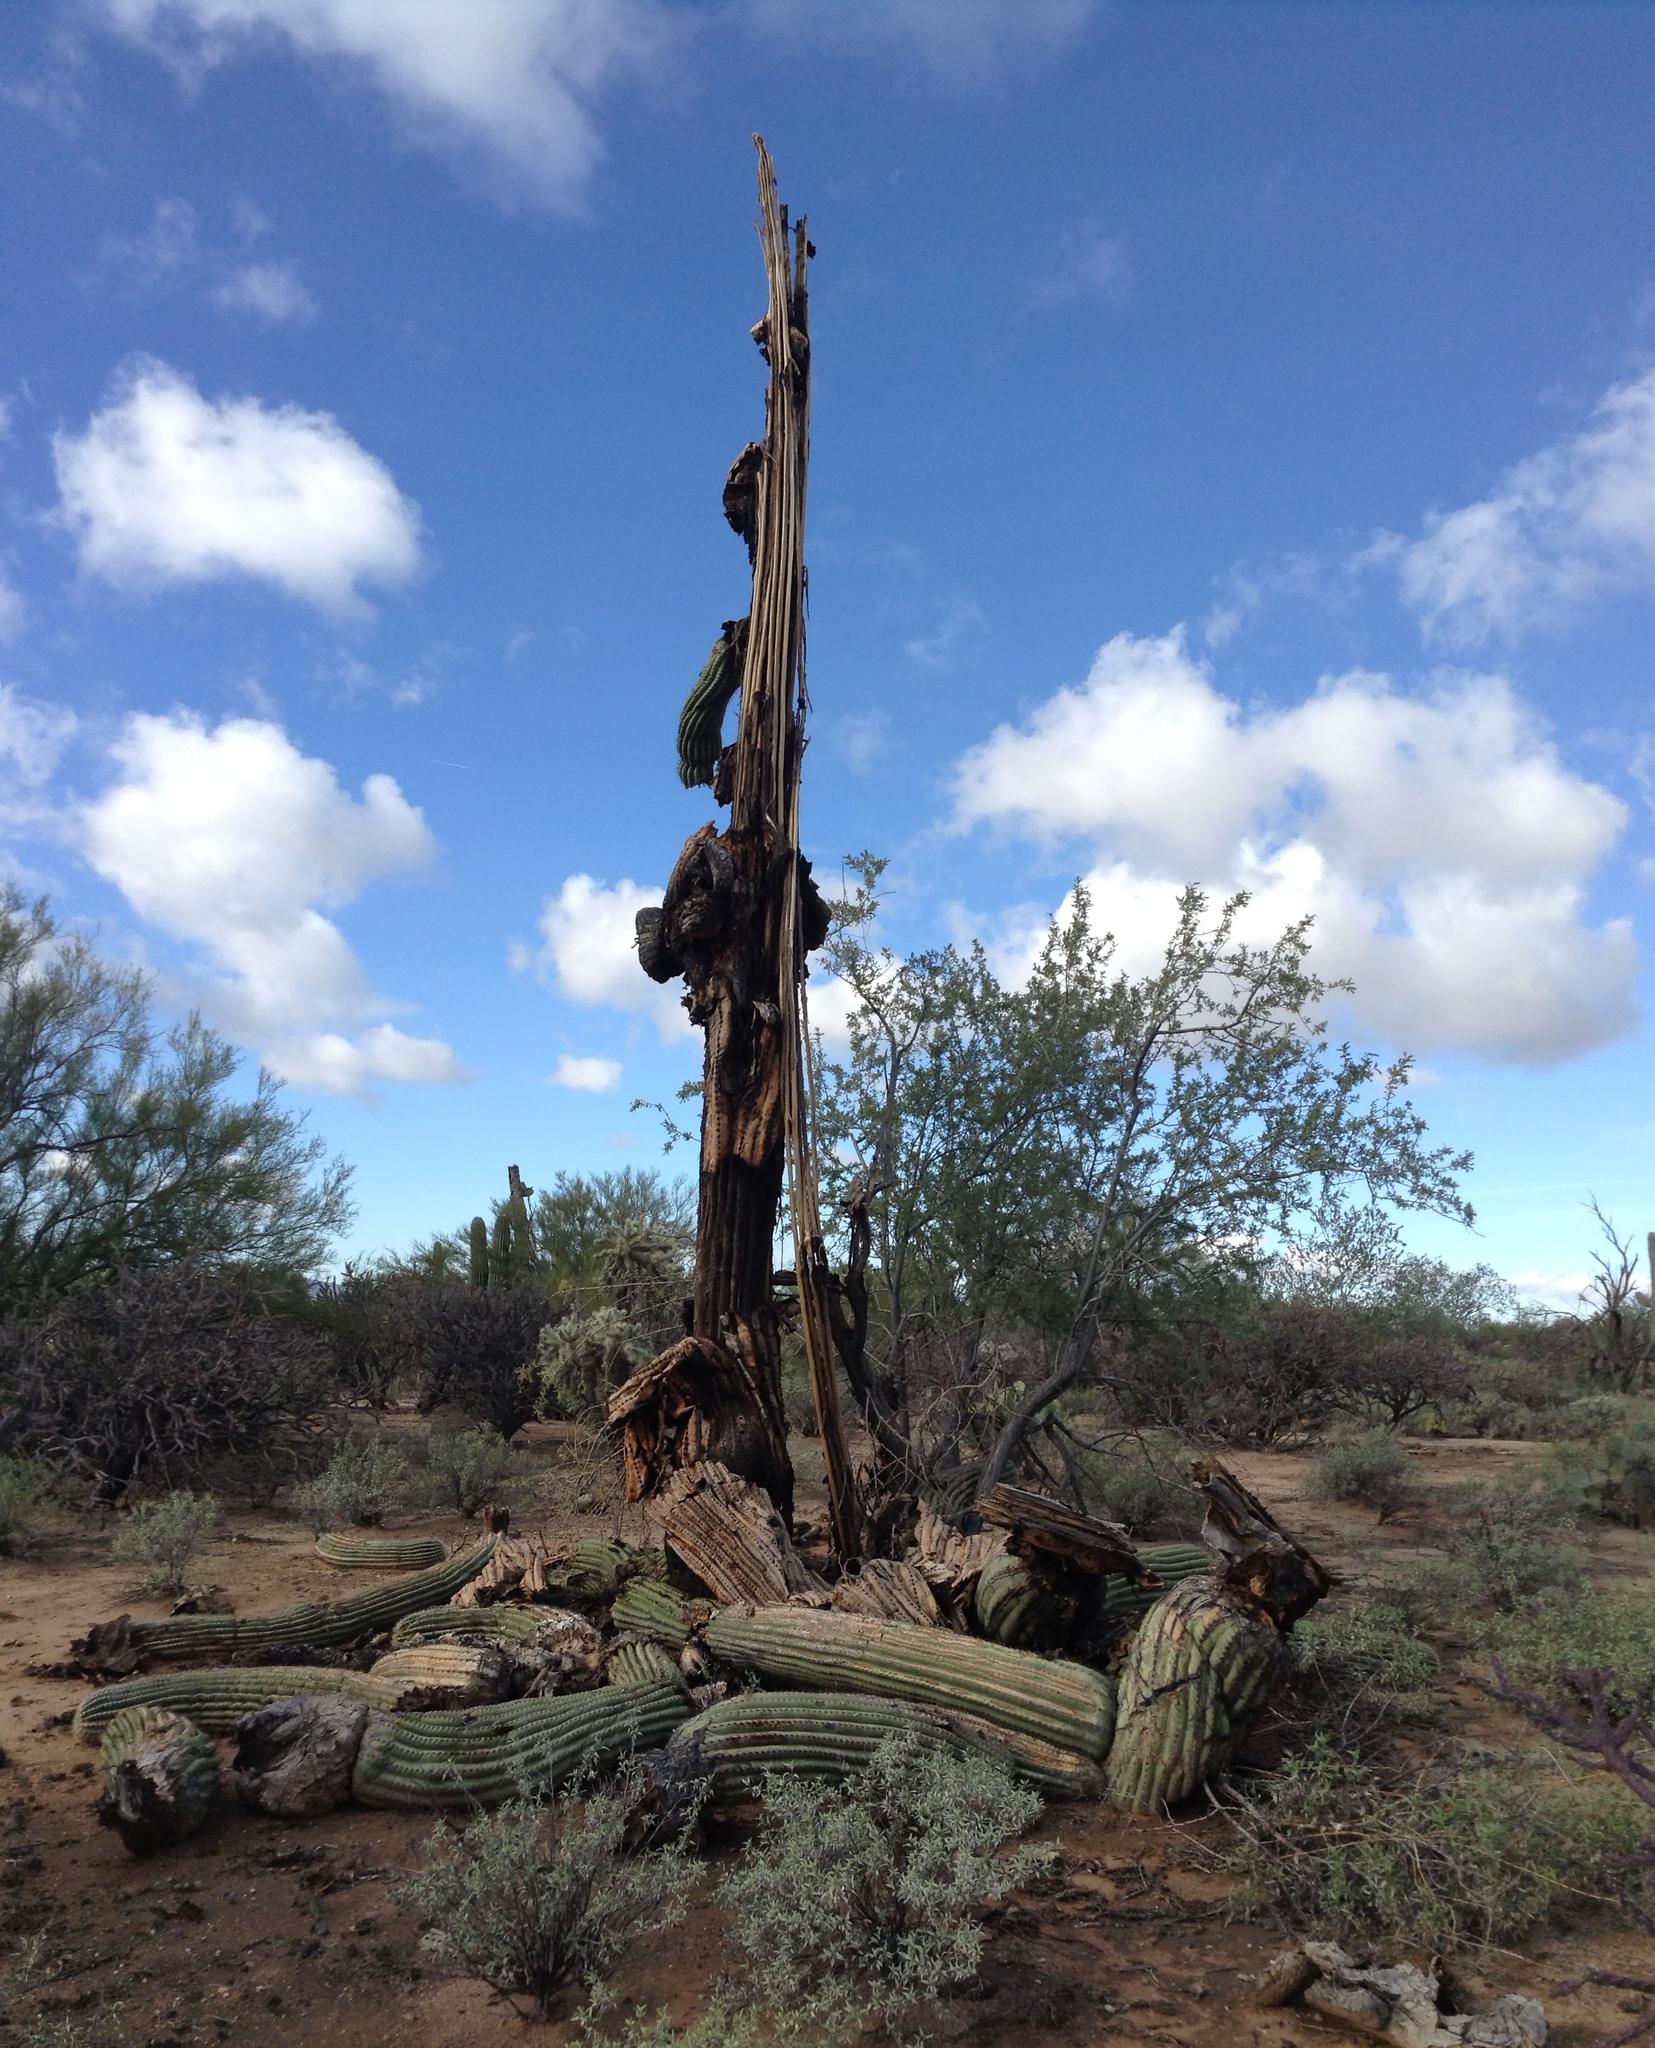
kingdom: Plantae
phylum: Tracheophyta
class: Magnoliopsida
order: Caryophyllales
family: Cactaceae
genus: Carnegiea
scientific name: Carnegiea gigantea
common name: Saguaro
